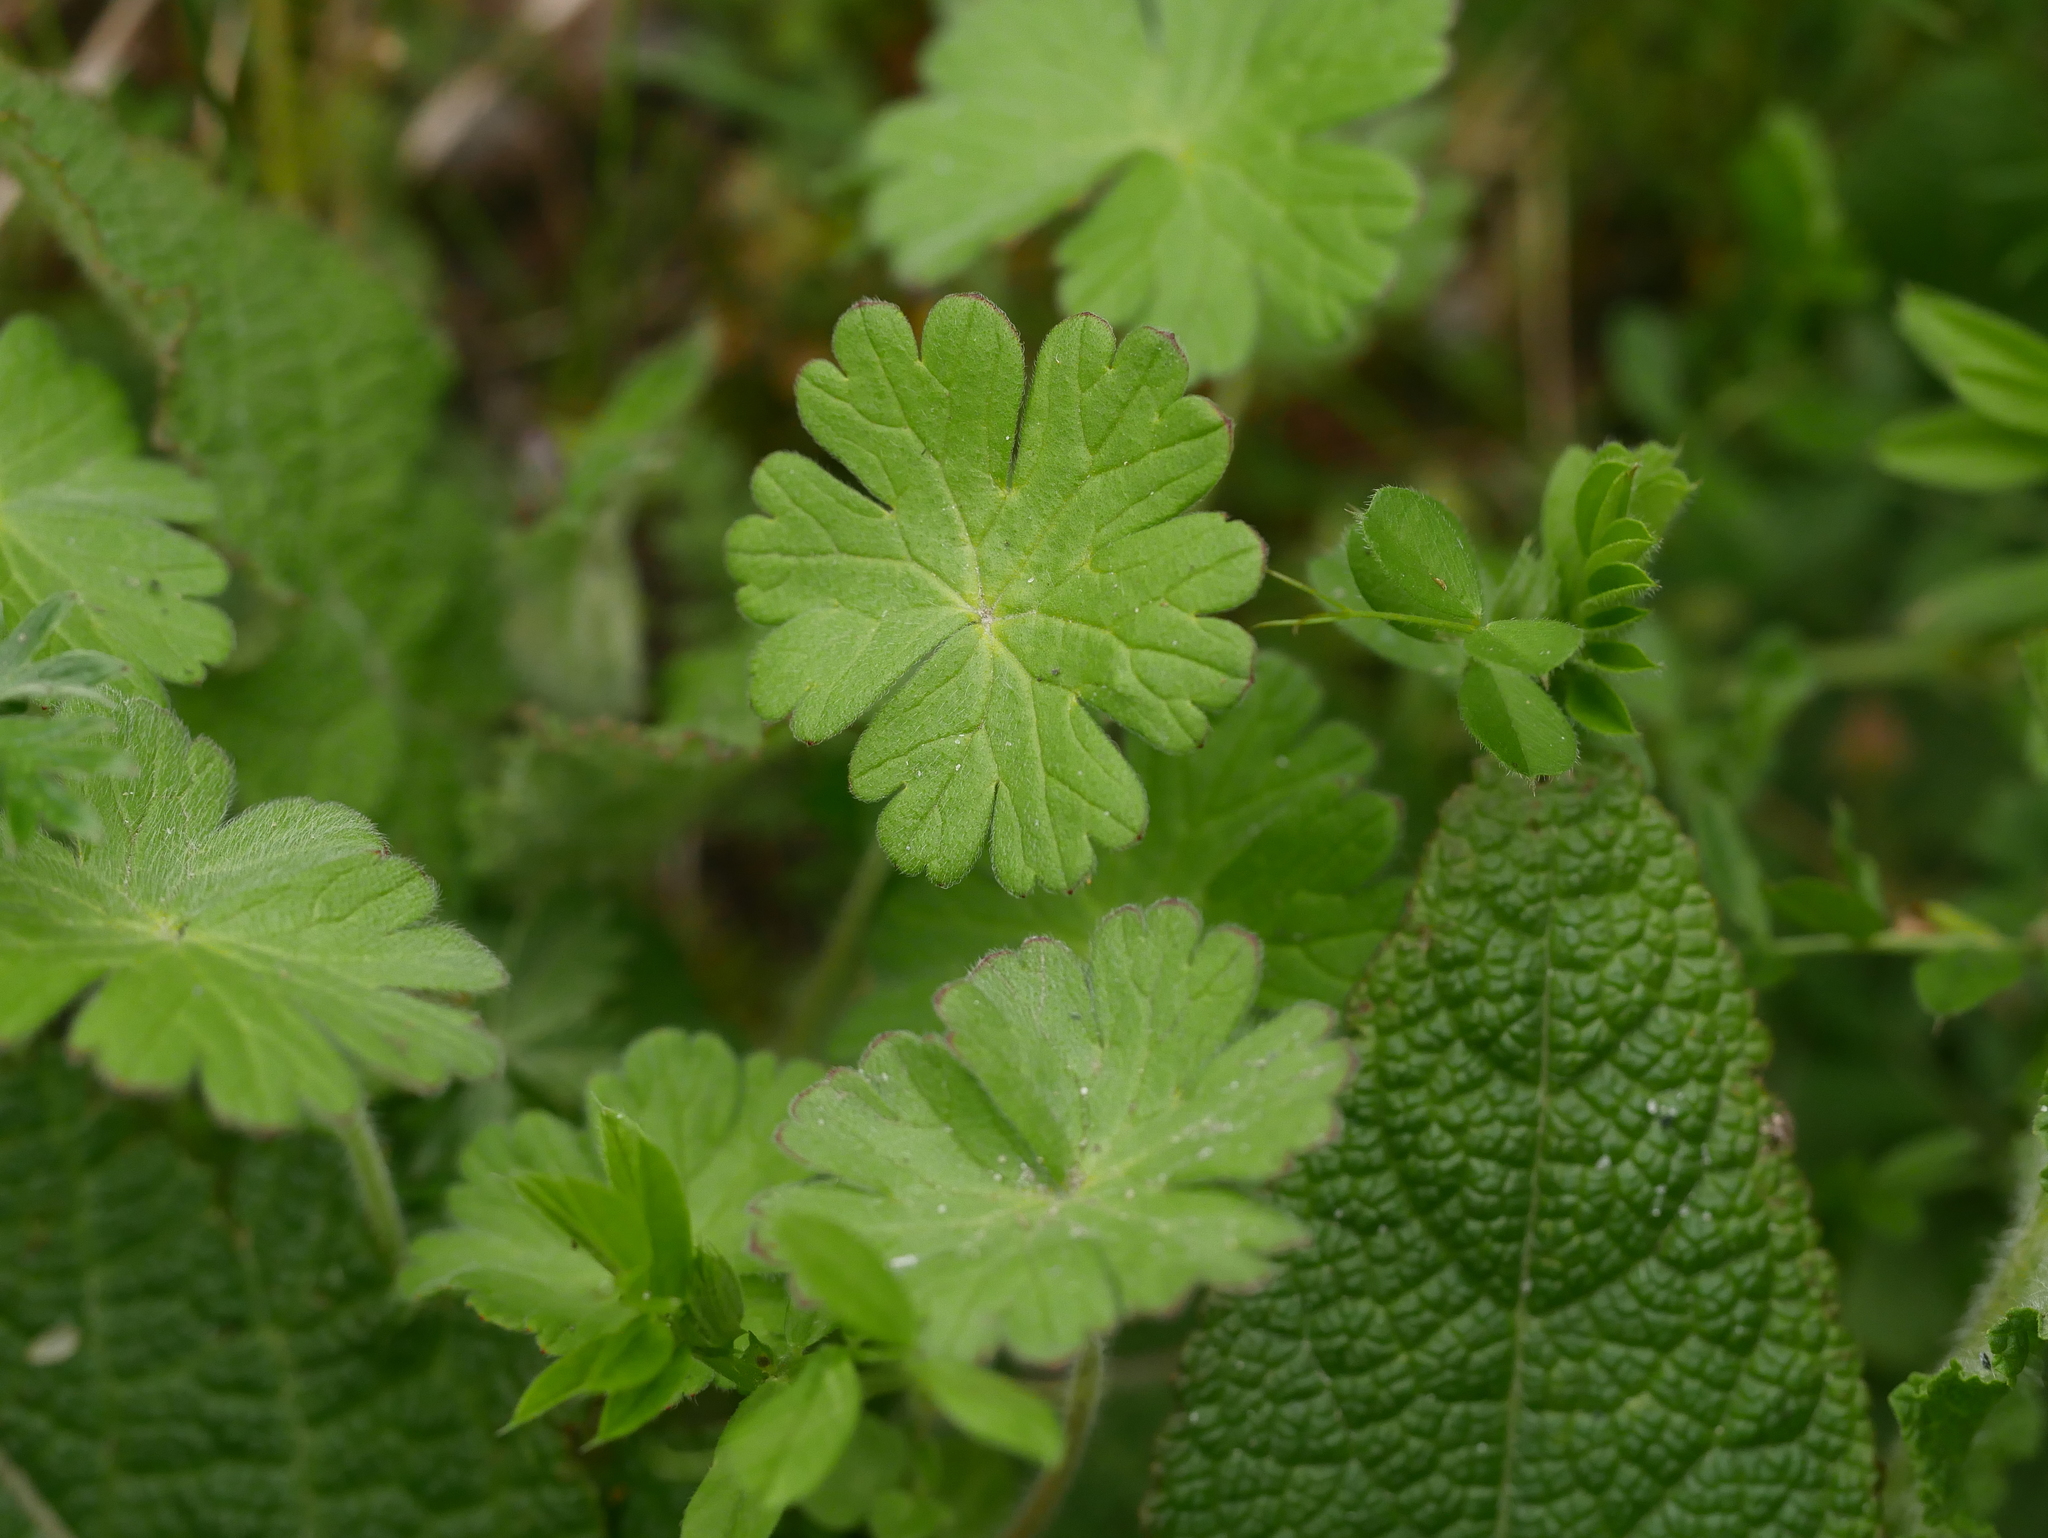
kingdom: Plantae
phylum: Tracheophyta
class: Magnoliopsida
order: Geraniales
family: Geraniaceae
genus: Geranium
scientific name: Geranium molle
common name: Dove's-foot crane's-bill
